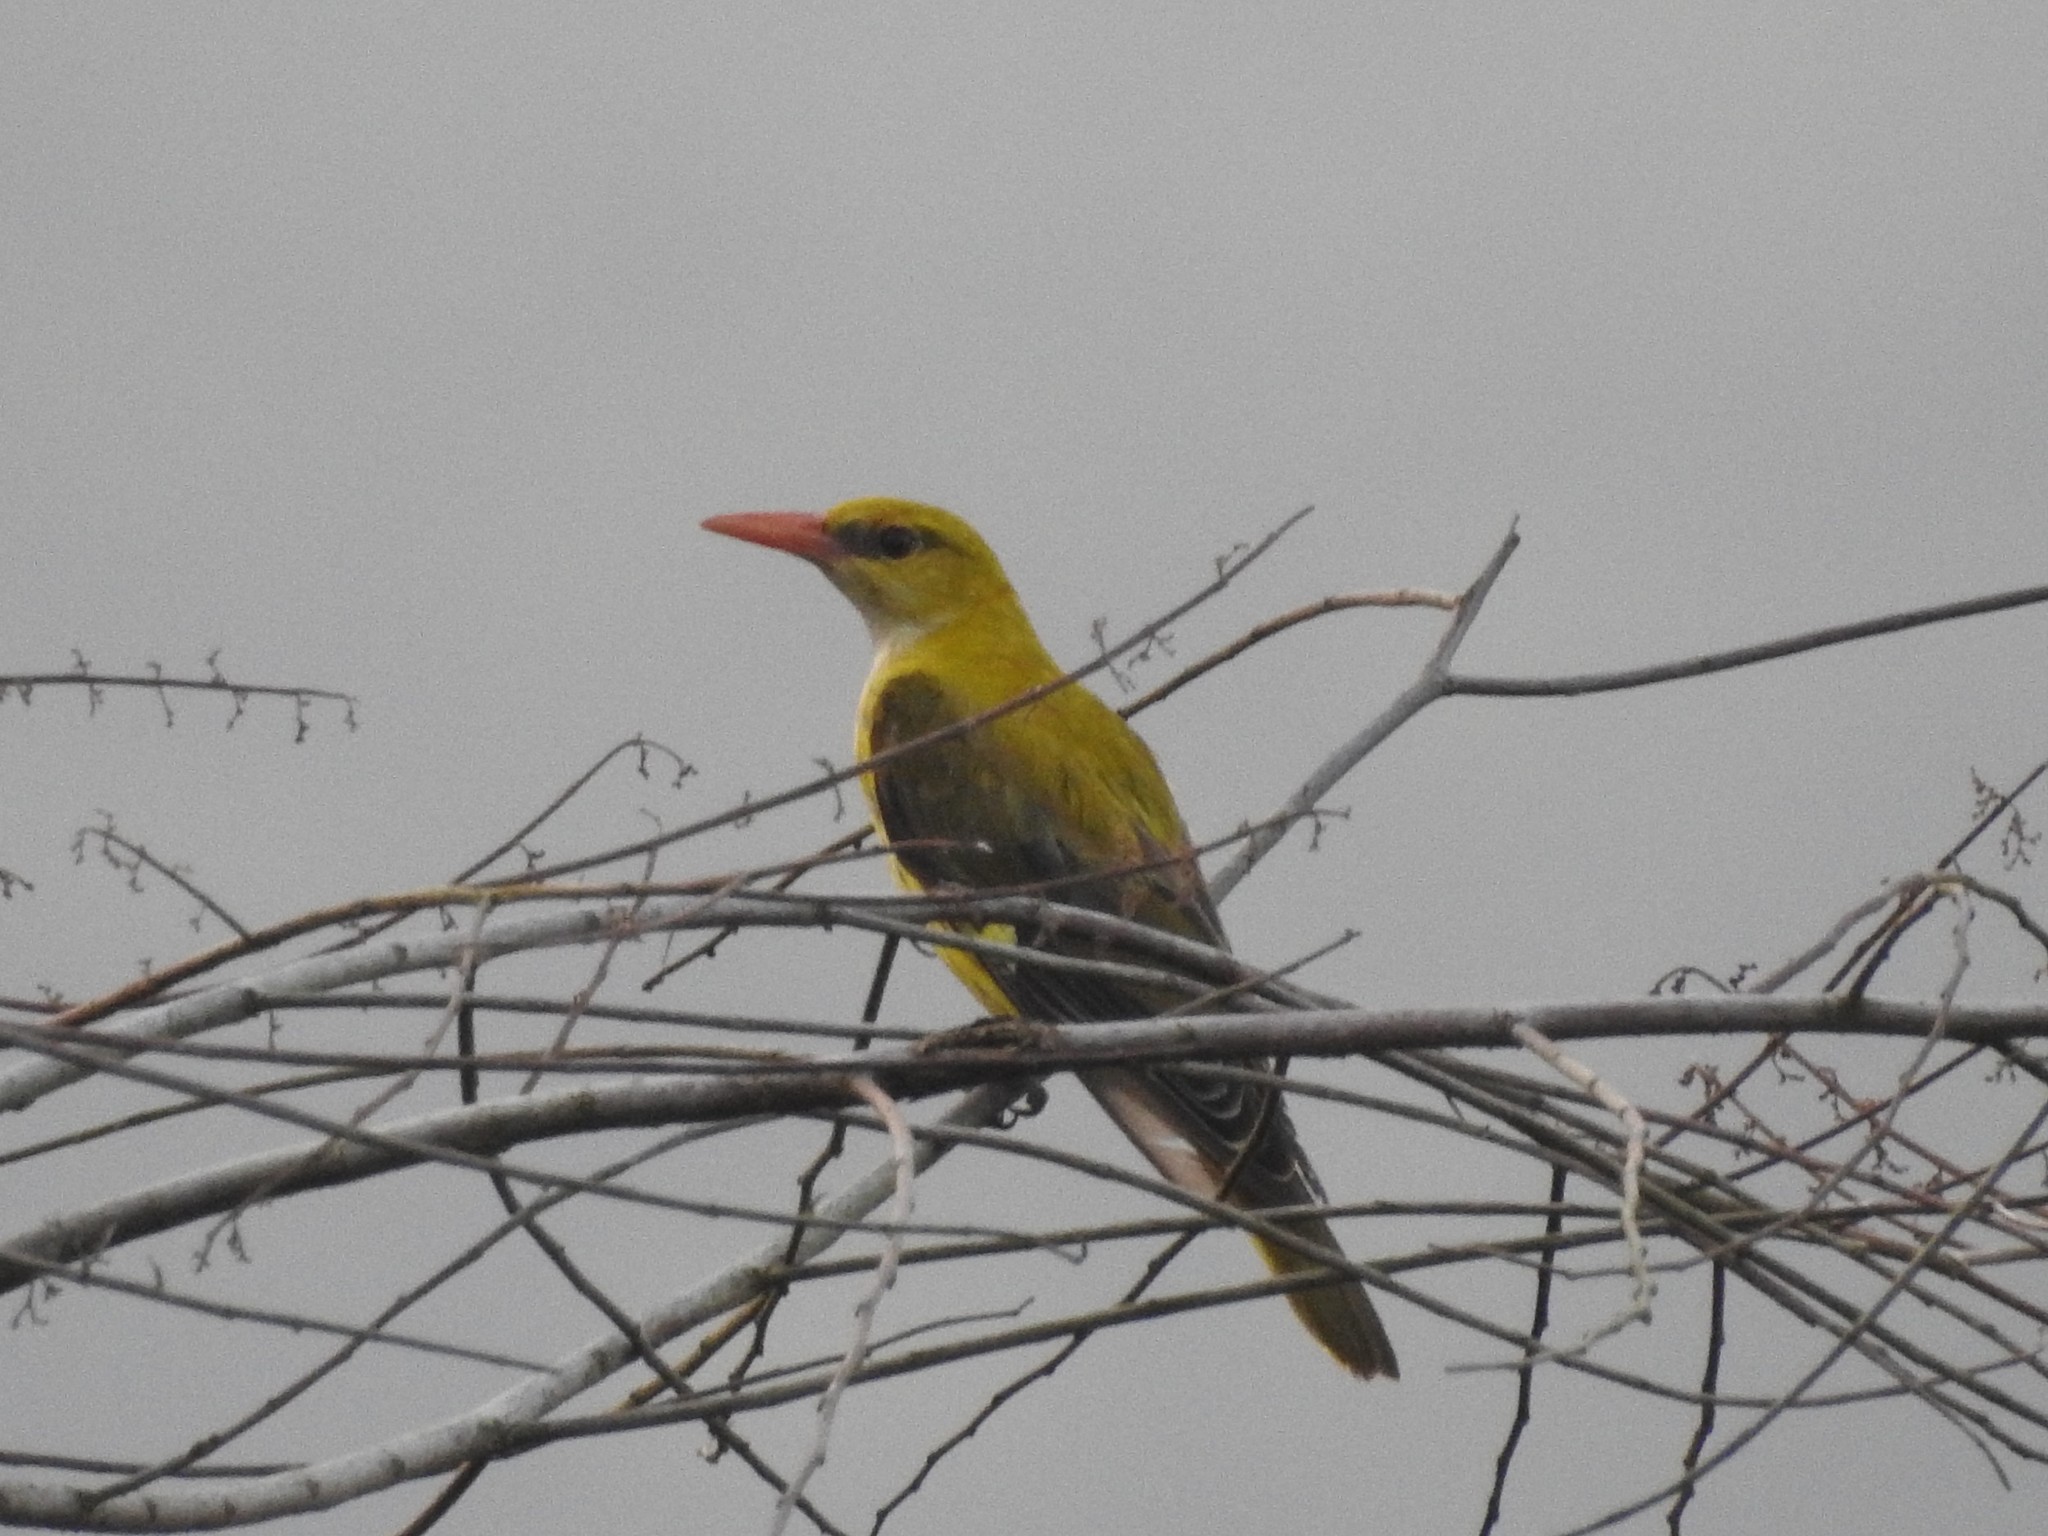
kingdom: Animalia
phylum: Chordata
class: Aves
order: Passeriformes
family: Oriolidae
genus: Oriolus
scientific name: Oriolus kundoo
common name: Indian golden oriole
